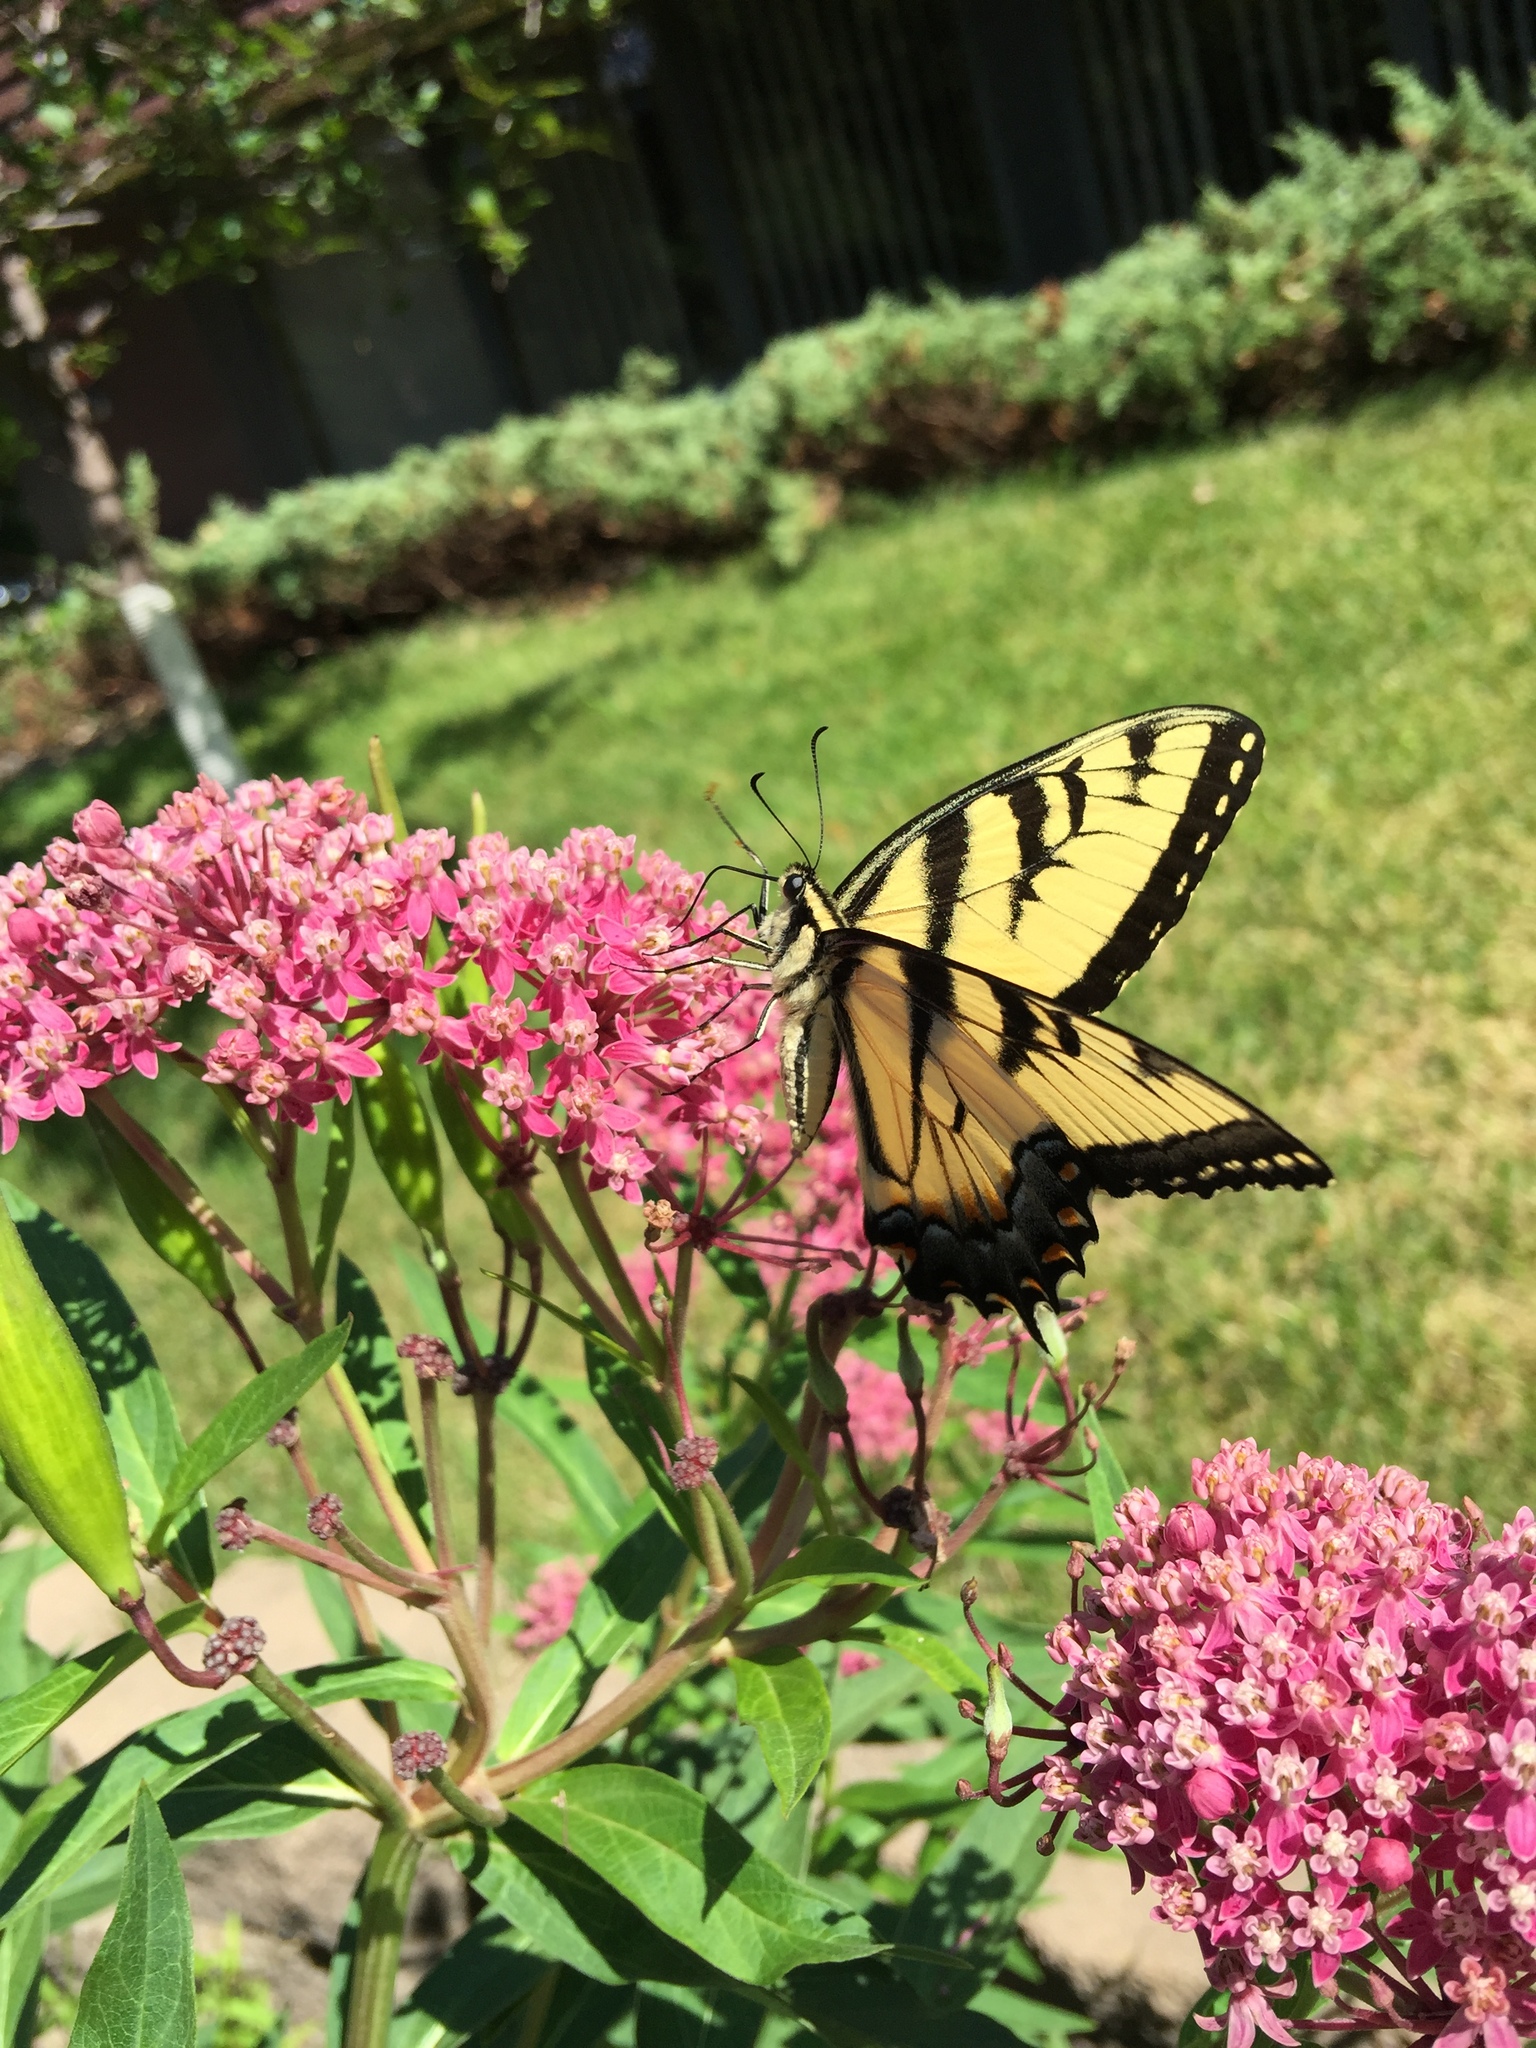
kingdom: Animalia
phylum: Arthropoda
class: Insecta
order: Lepidoptera
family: Papilionidae
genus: Papilio
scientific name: Papilio glaucus
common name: Tiger swallowtail
